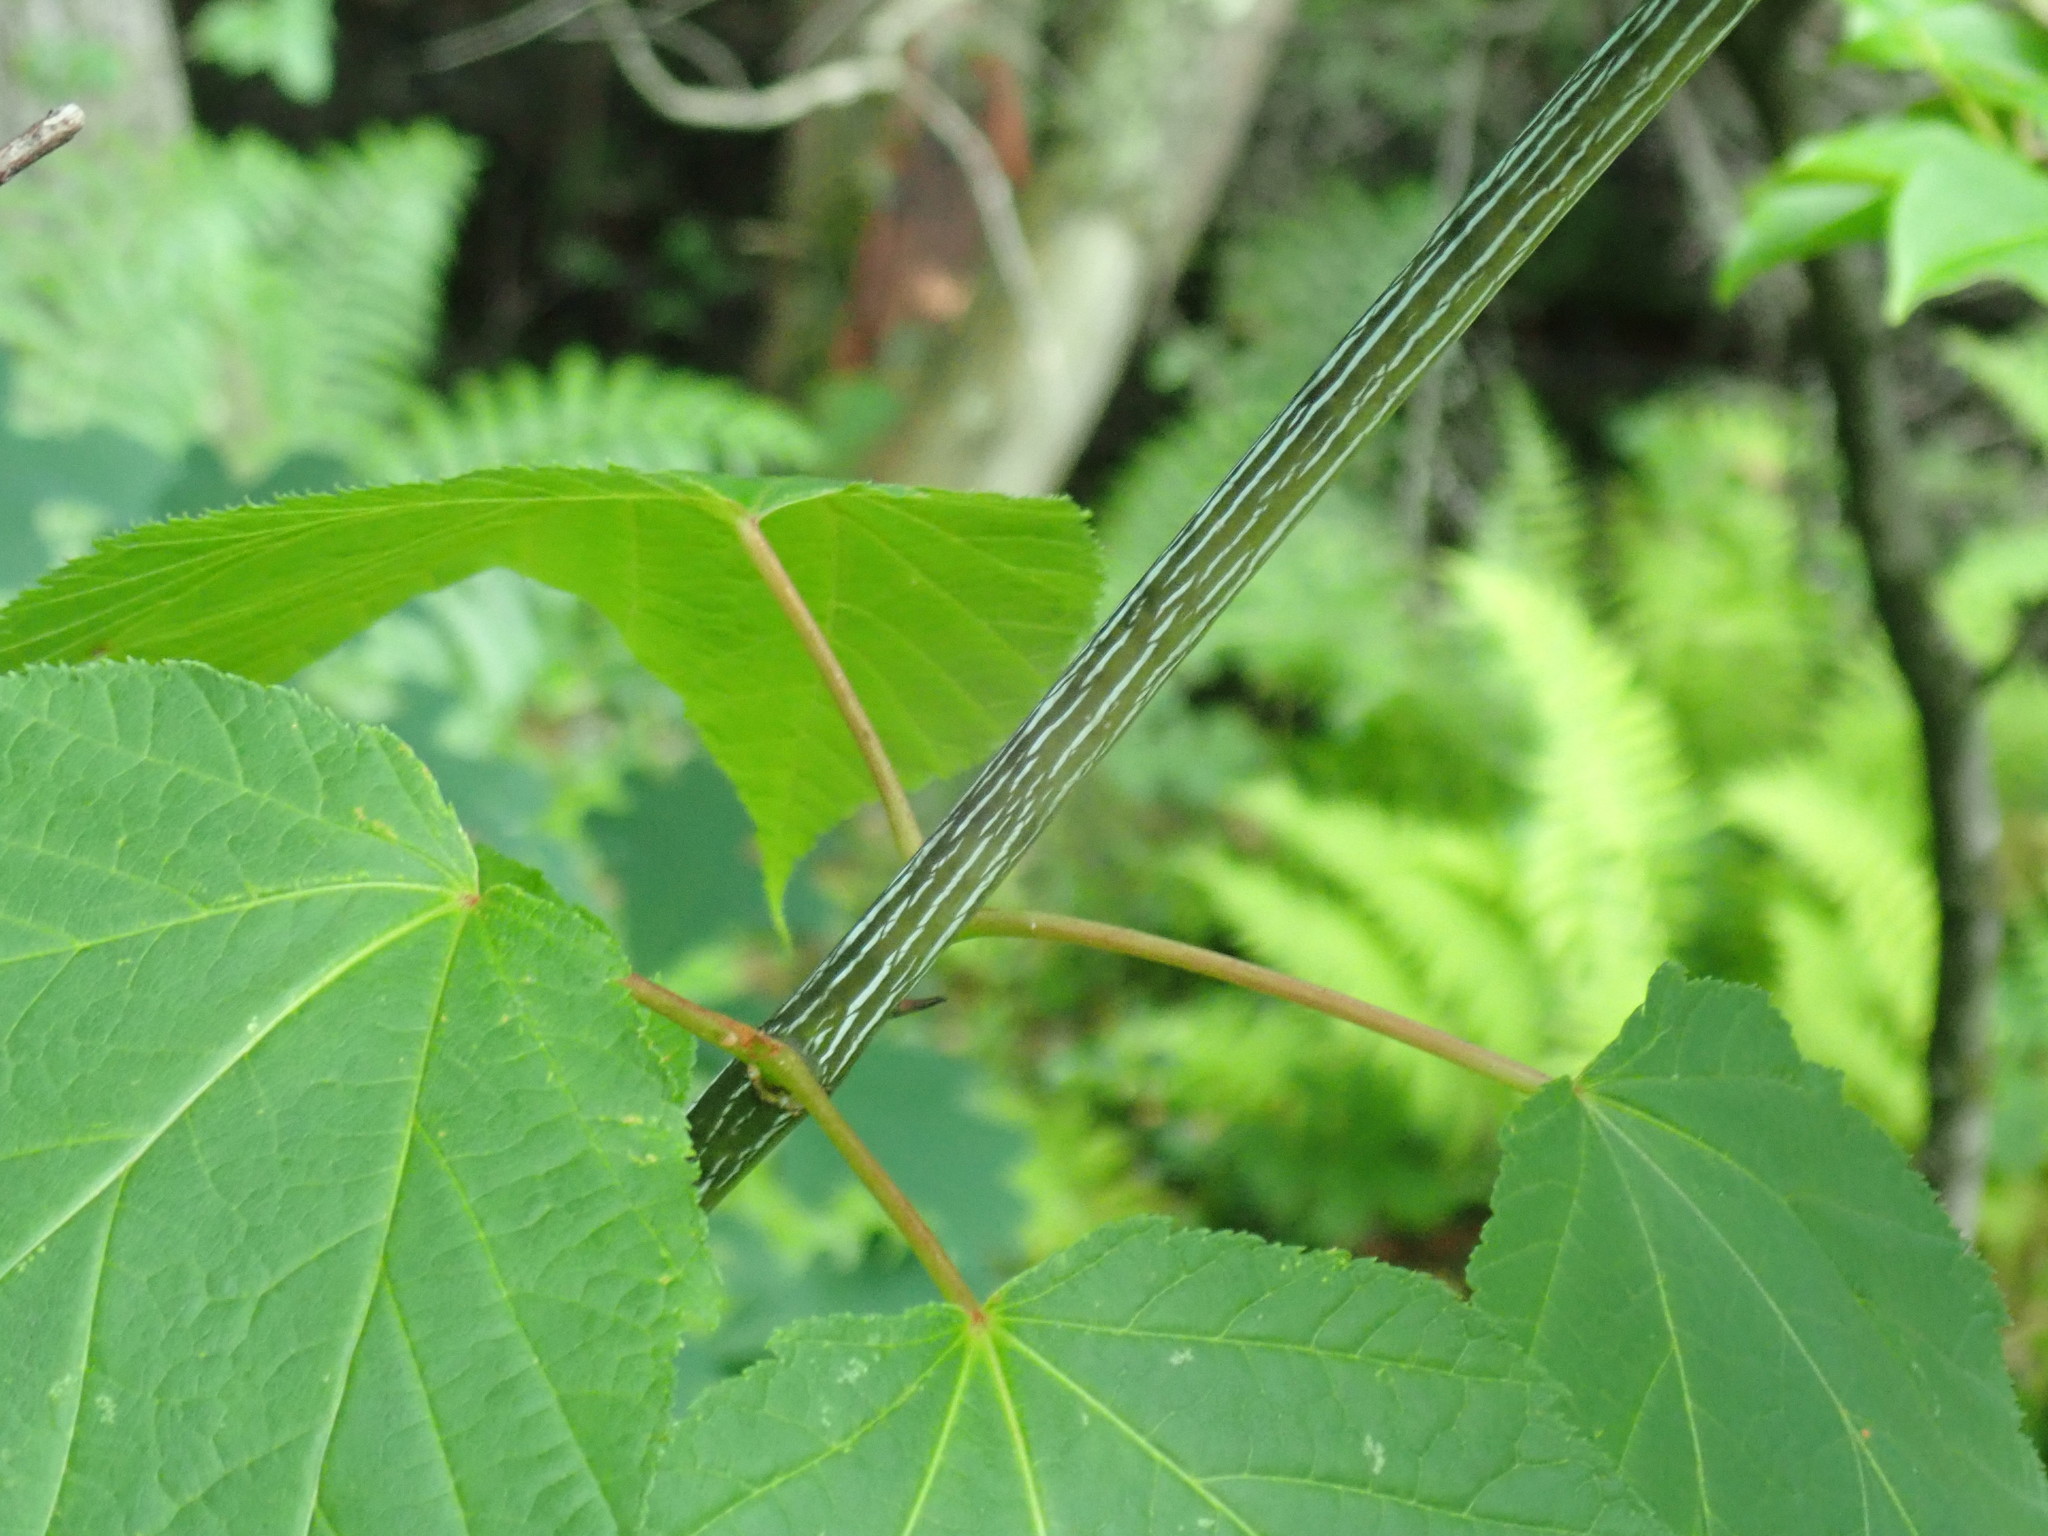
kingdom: Plantae
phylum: Tracheophyta
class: Magnoliopsida
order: Sapindales
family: Sapindaceae
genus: Acer
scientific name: Acer pensylvanicum
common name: Moosewood
